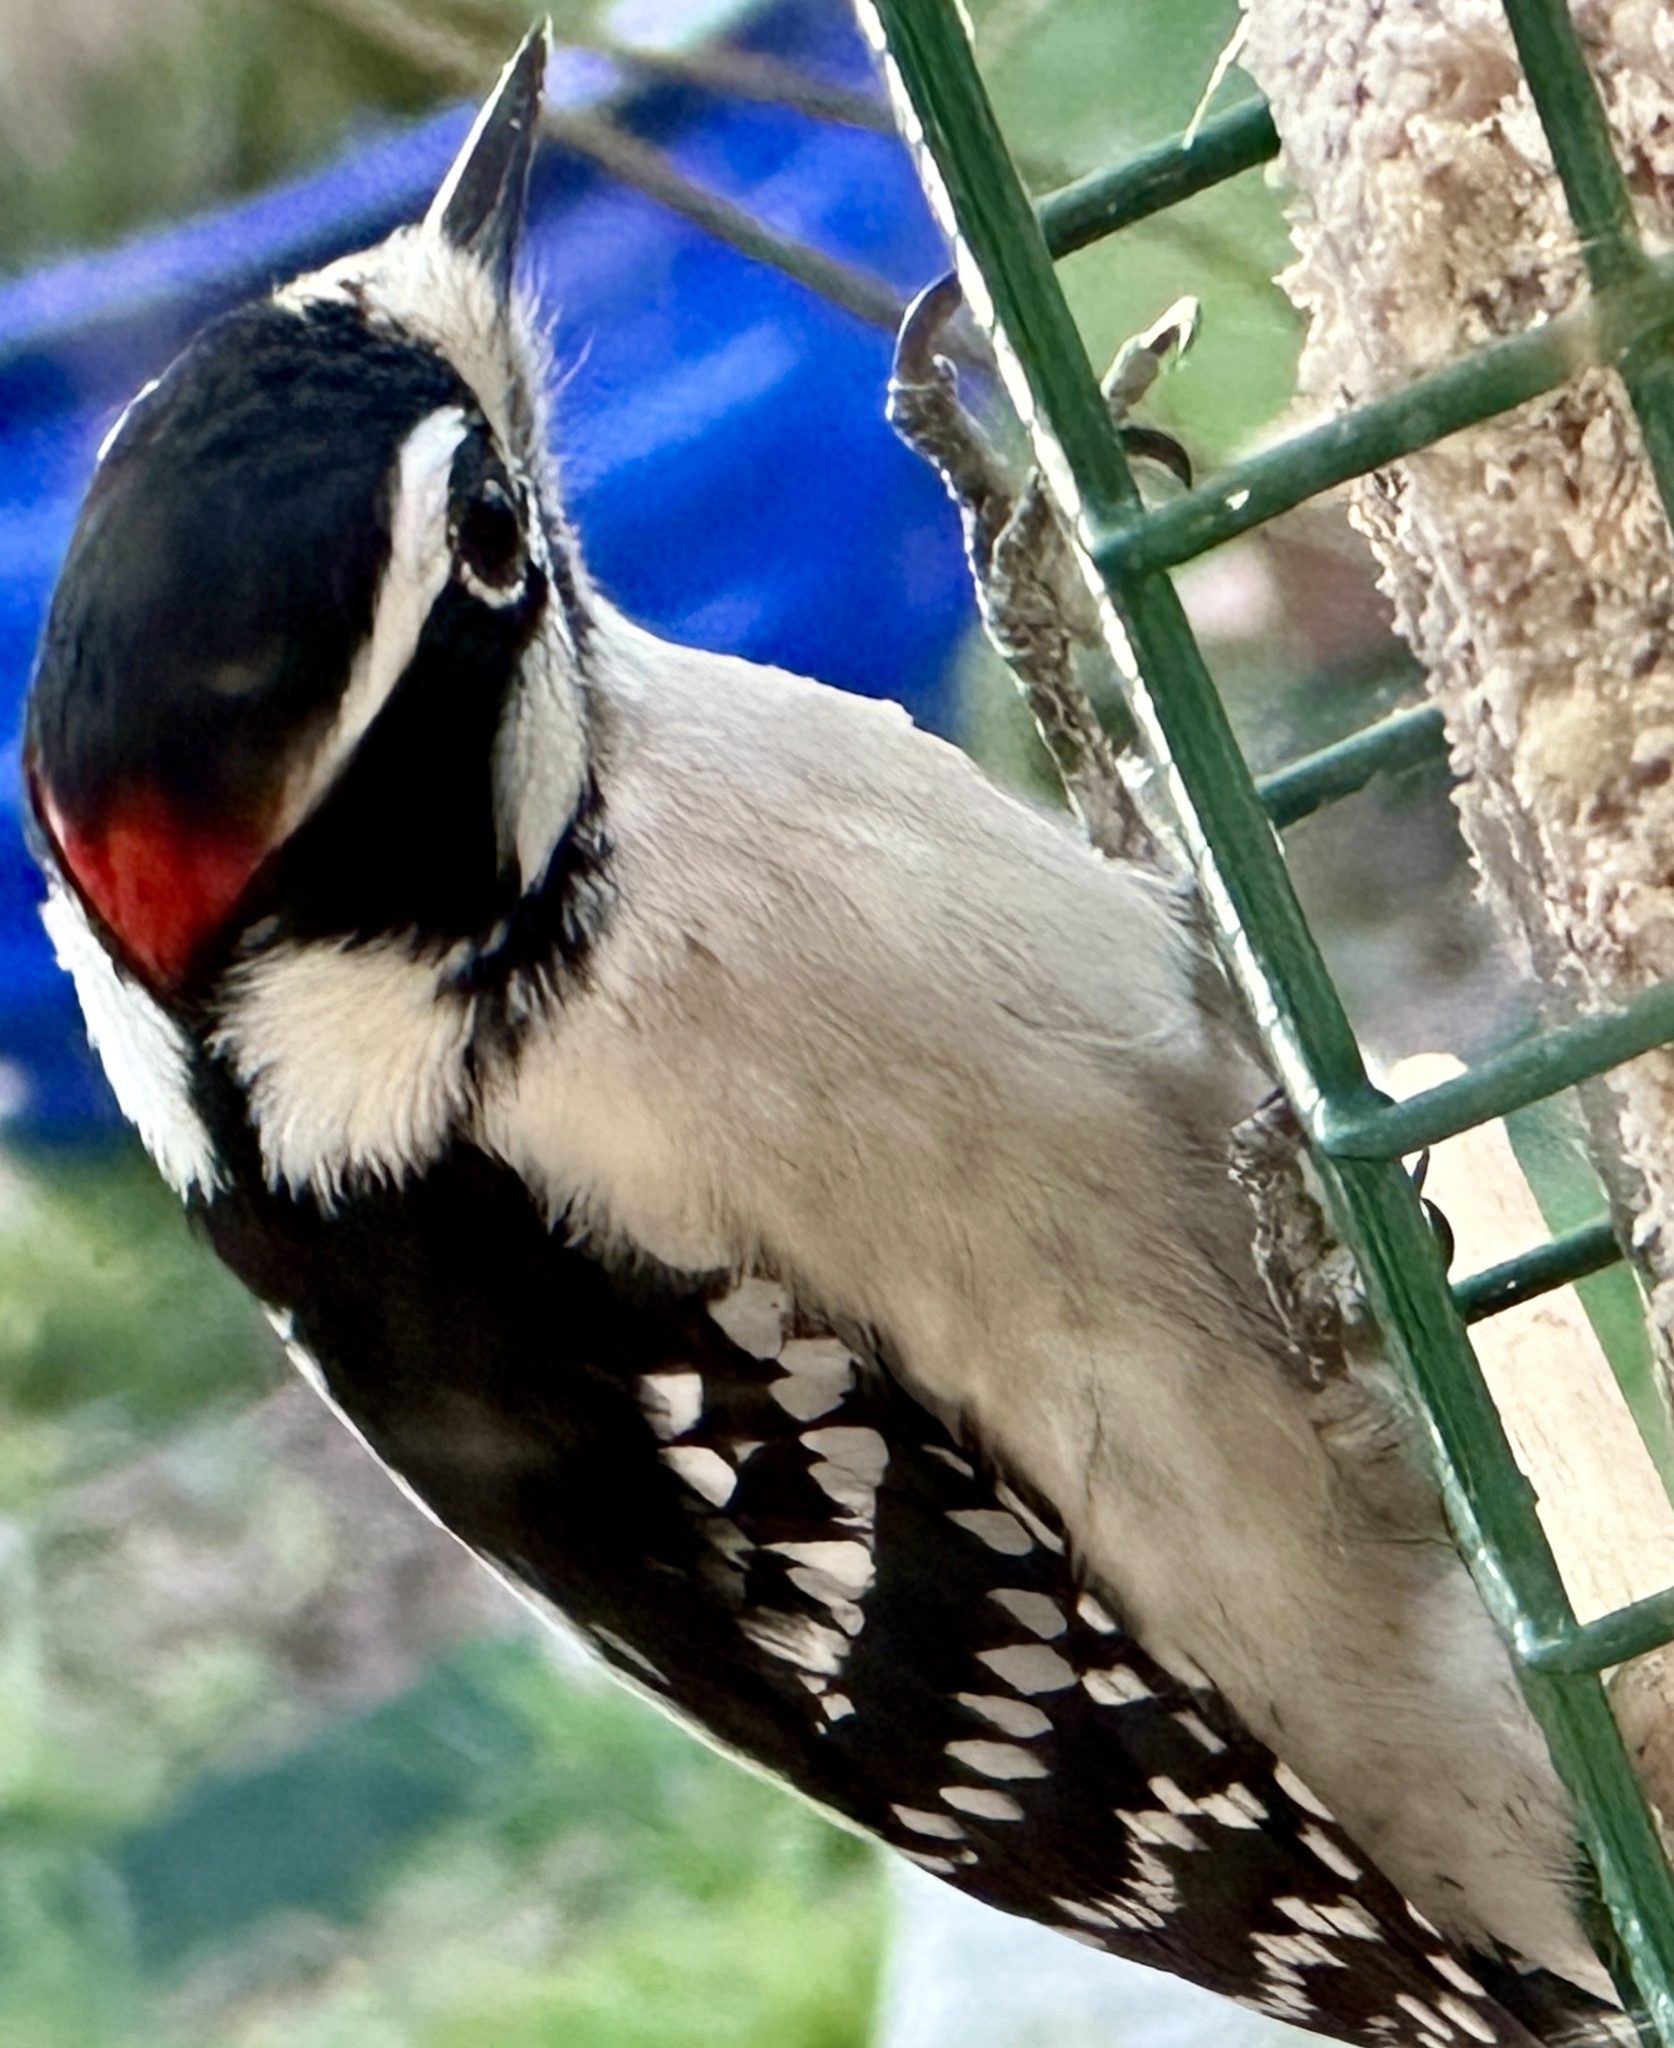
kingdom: Animalia
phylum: Chordata
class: Aves
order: Piciformes
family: Picidae
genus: Dryobates
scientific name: Dryobates pubescens
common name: Downy woodpecker
